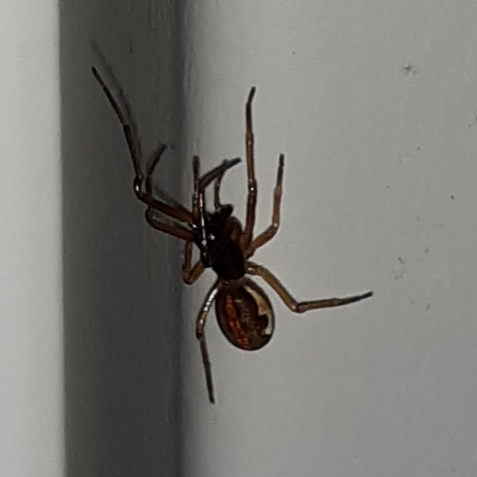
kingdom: Animalia
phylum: Arthropoda
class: Arachnida
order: Araneae
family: Tetragnathidae
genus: Pachygnatha
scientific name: Pachygnatha autumnalis
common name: Big-eyed thick-jawed spider
